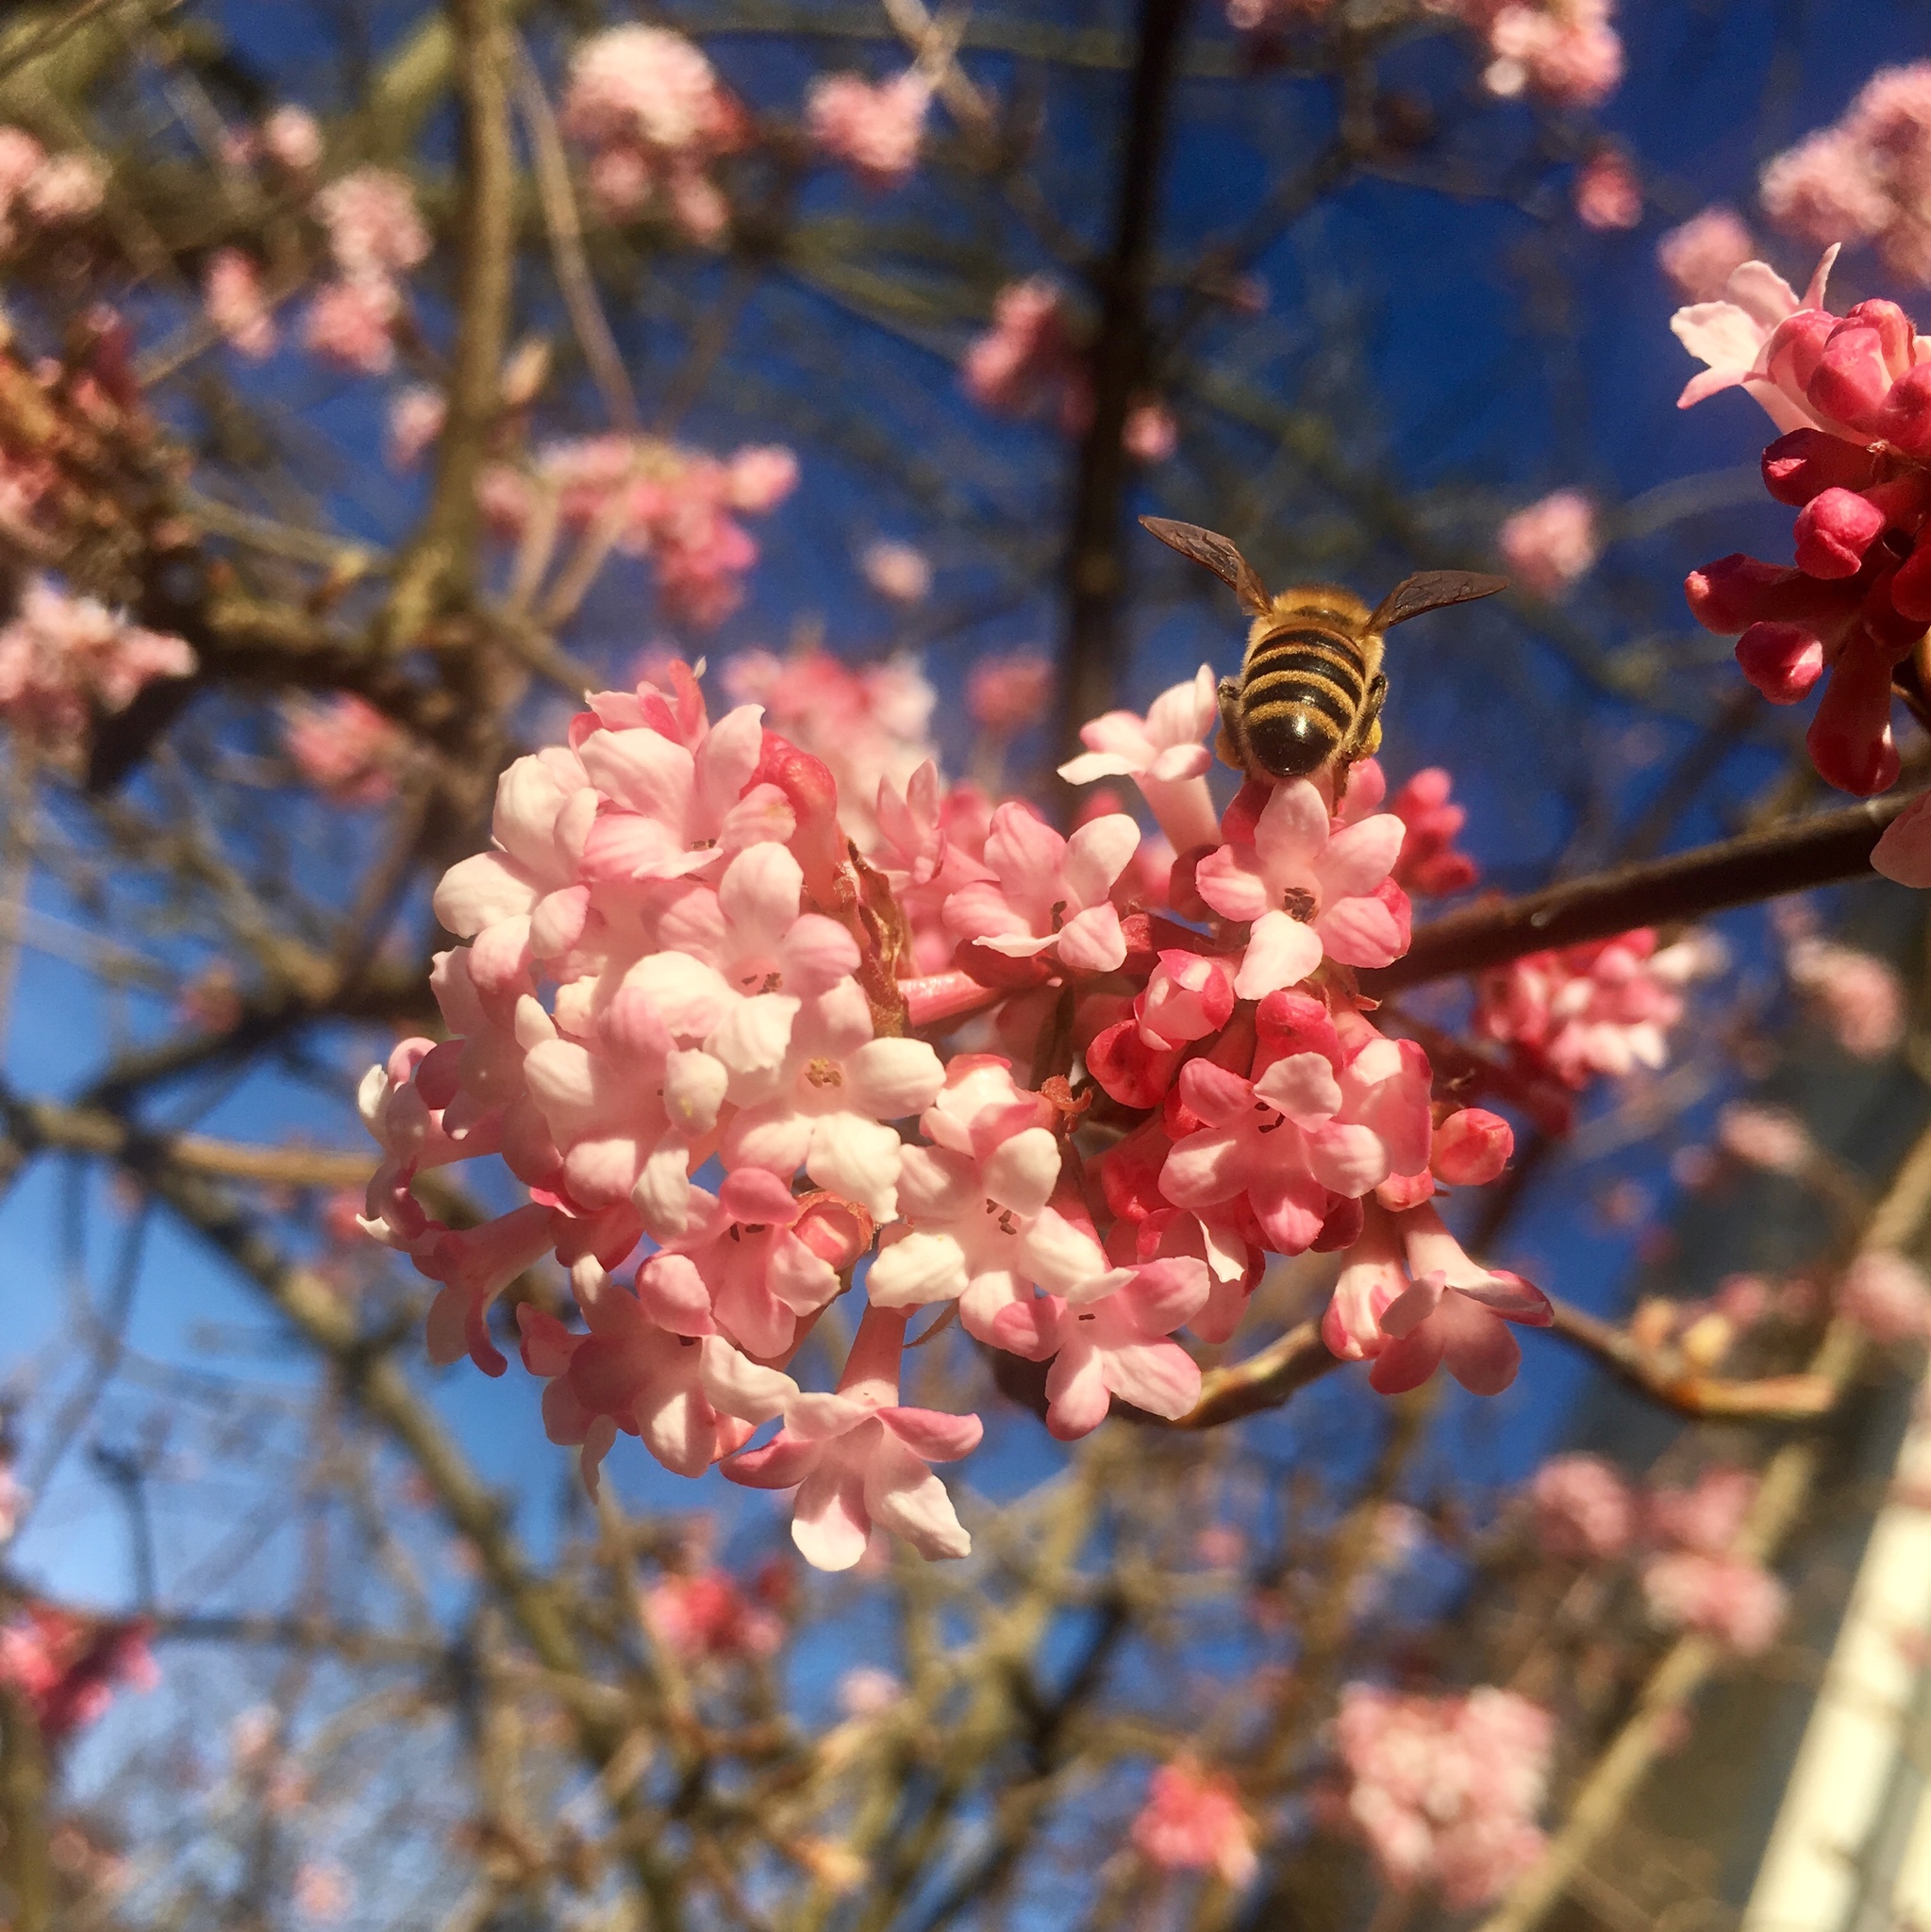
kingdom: Animalia
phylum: Arthropoda
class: Insecta
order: Hymenoptera
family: Apidae
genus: Apis
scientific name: Apis mellifera
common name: Honey bee
